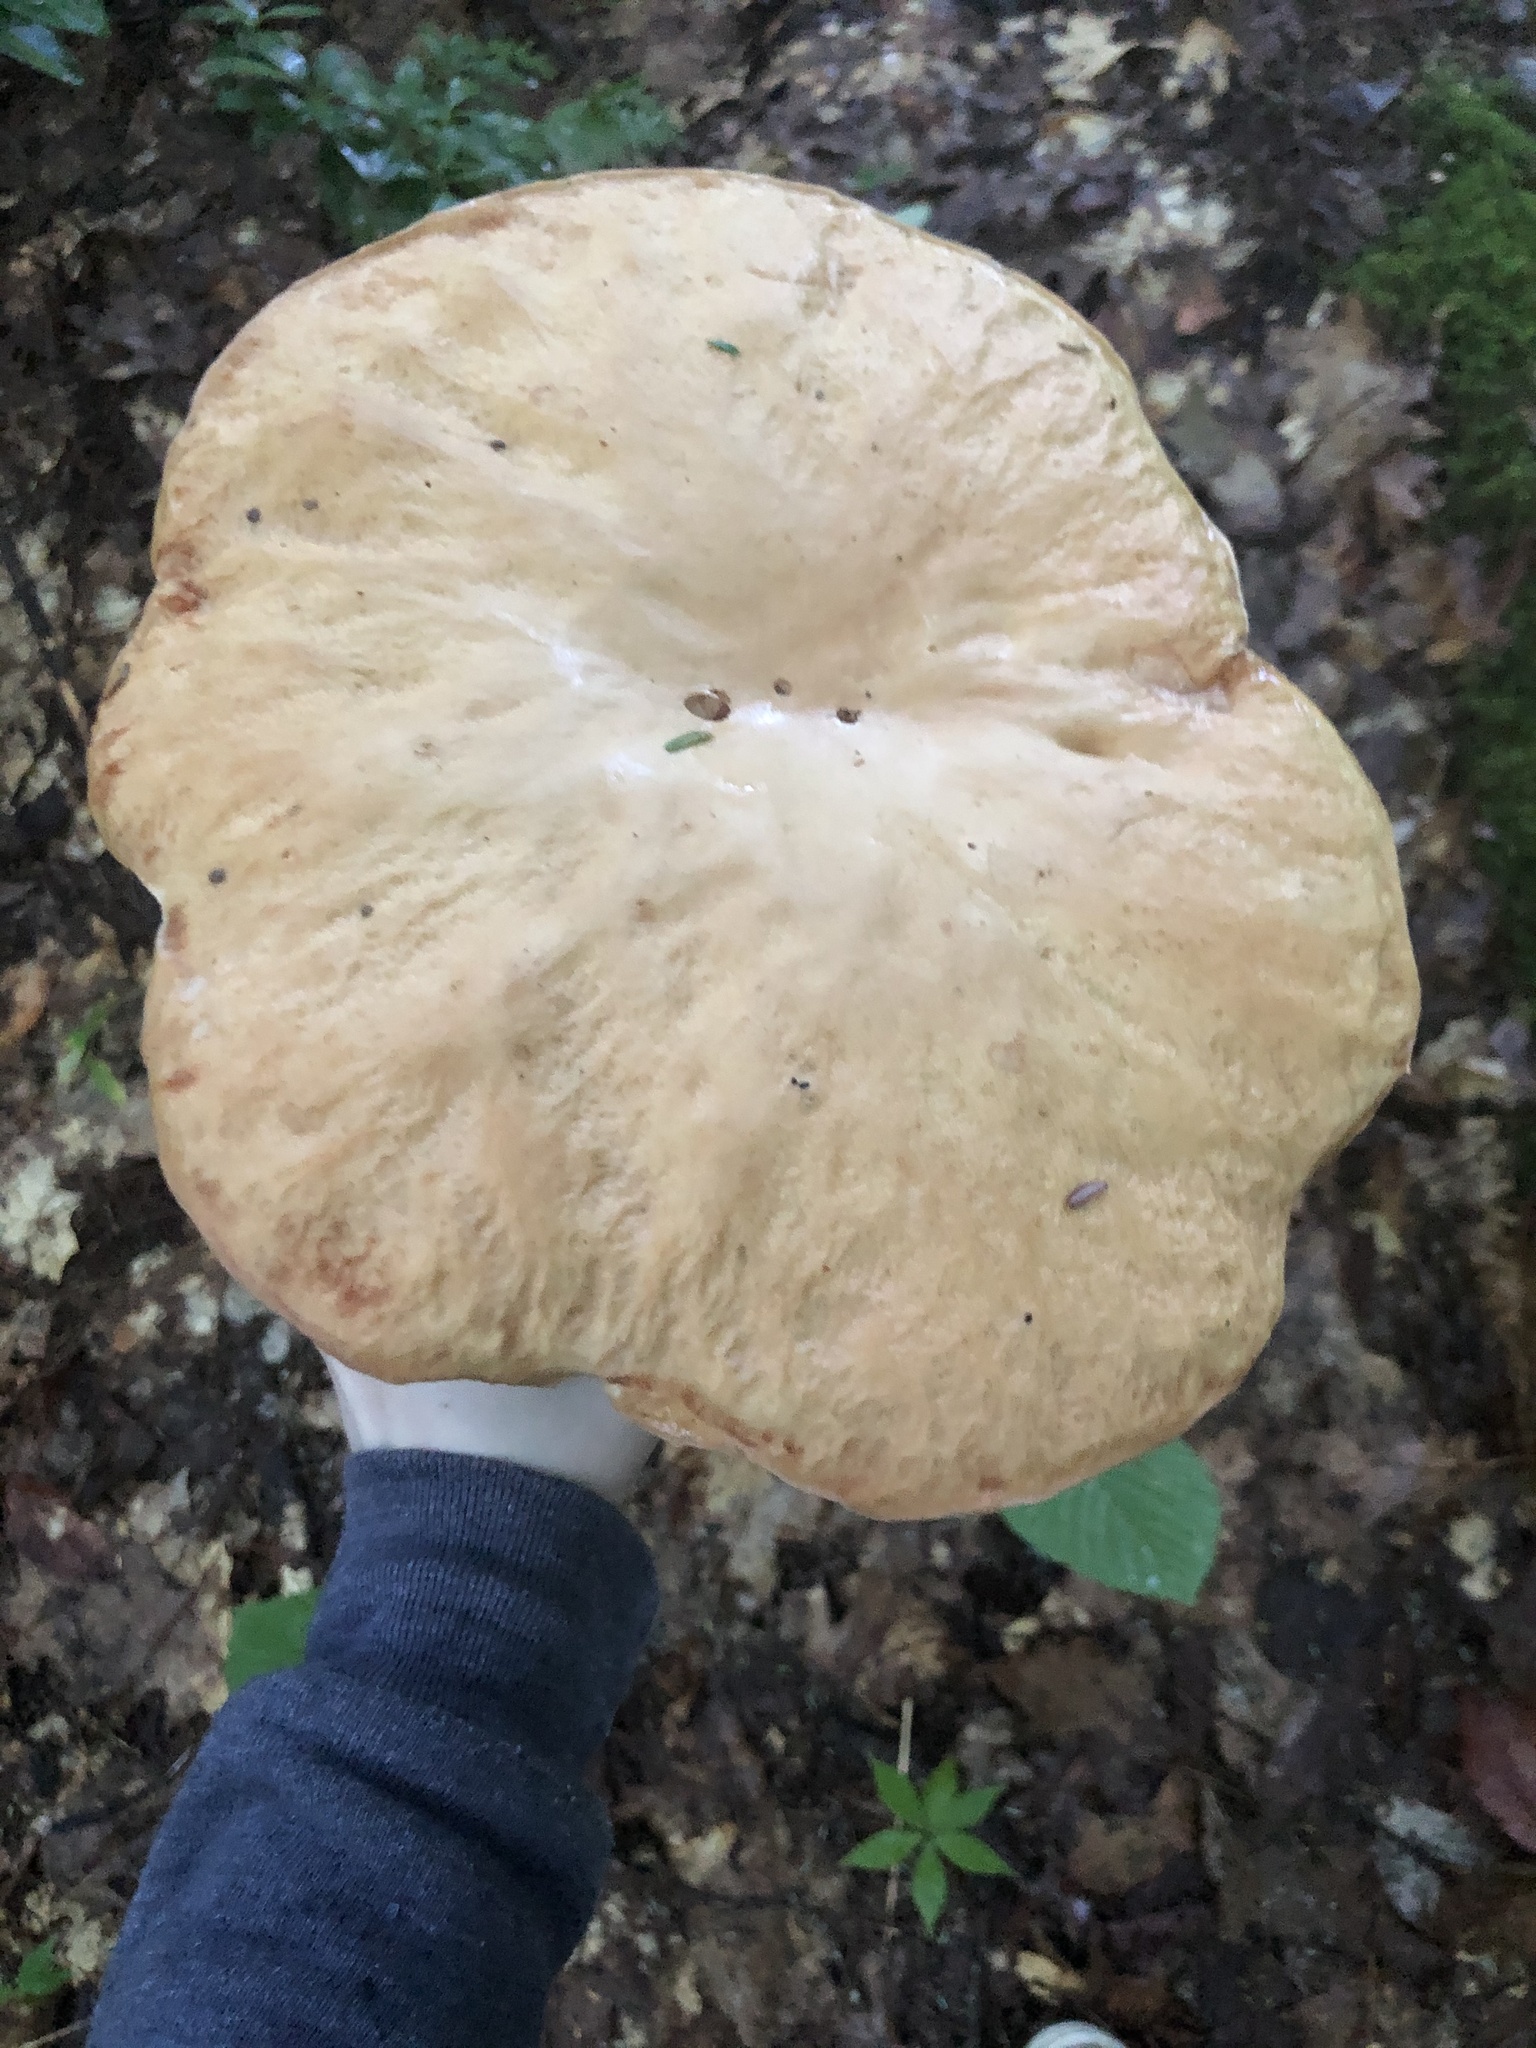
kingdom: Fungi
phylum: Basidiomycota
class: Agaricomycetes
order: Boletales
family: Boletaceae
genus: Boletus
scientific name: Boletus chippewaensis
